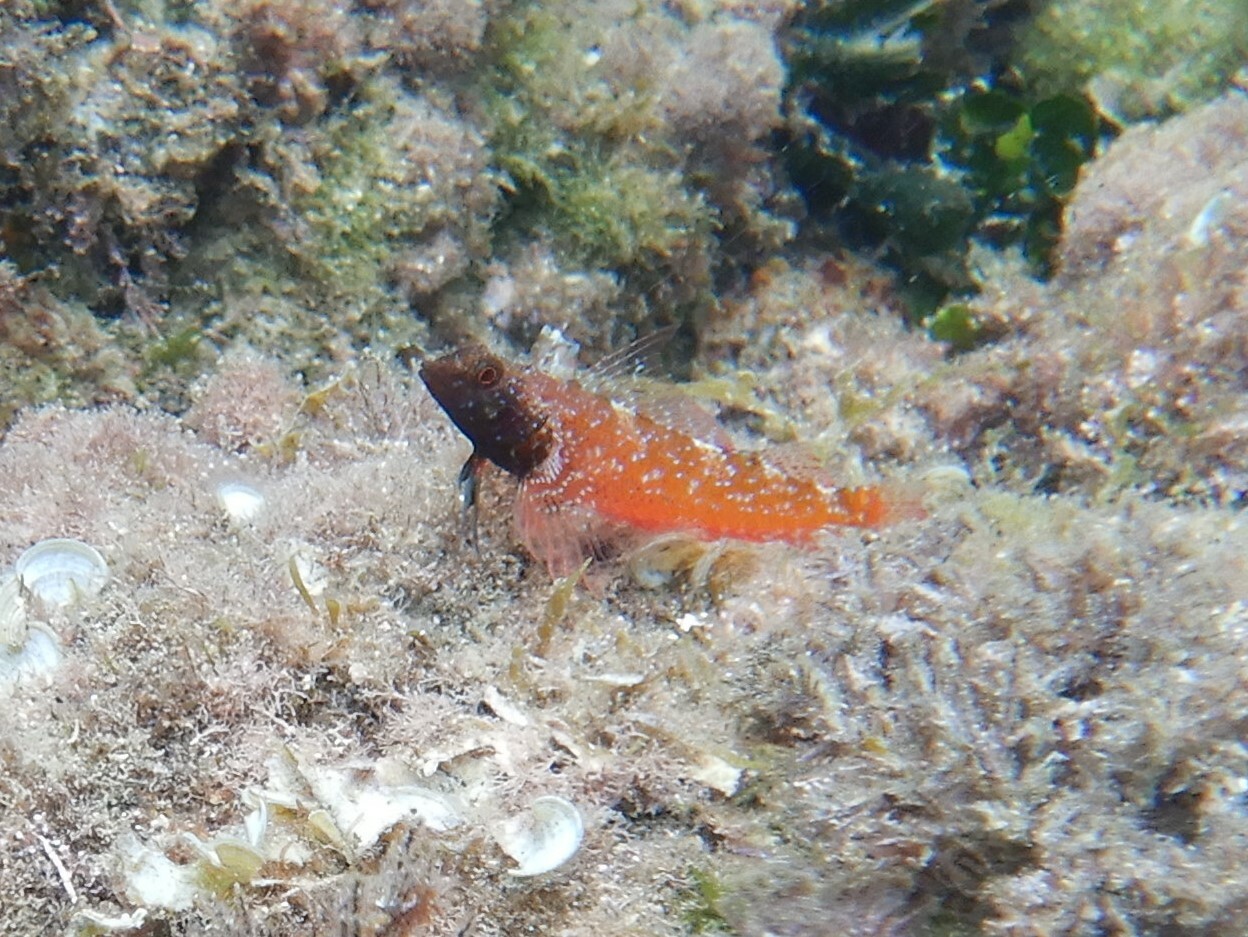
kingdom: Animalia
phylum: Chordata
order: Perciformes
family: Tripterygiidae
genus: Tripterygion
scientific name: Tripterygion tripteronotum
